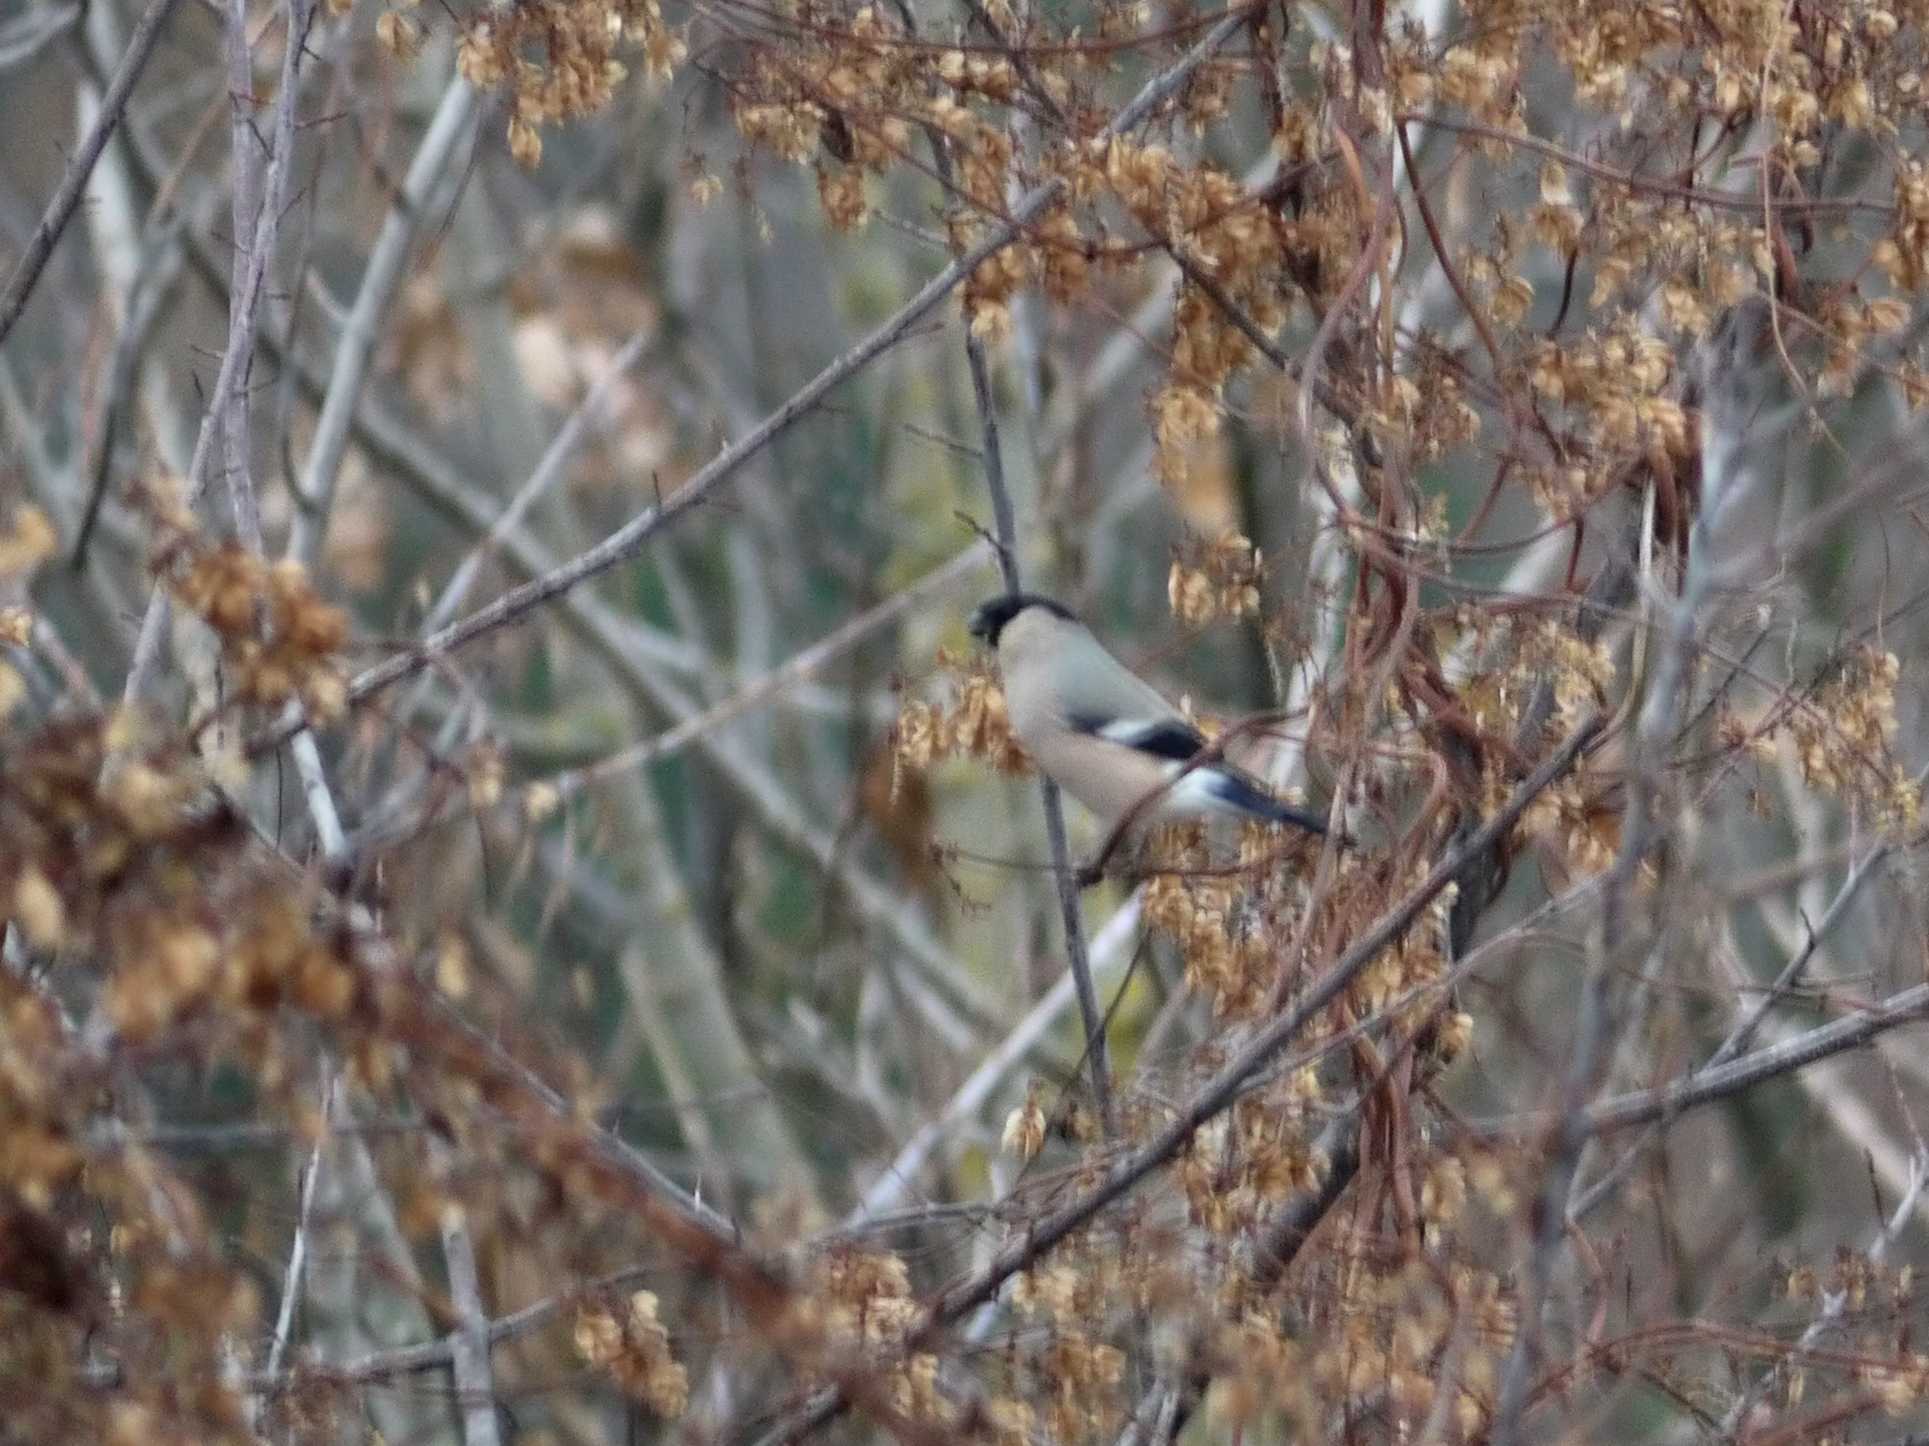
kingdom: Animalia
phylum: Chordata
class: Aves
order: Passeriformes
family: Fringillidae
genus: Pyrrhula
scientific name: Pyrrhula pyrrhula
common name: Eurasian bullfinch
